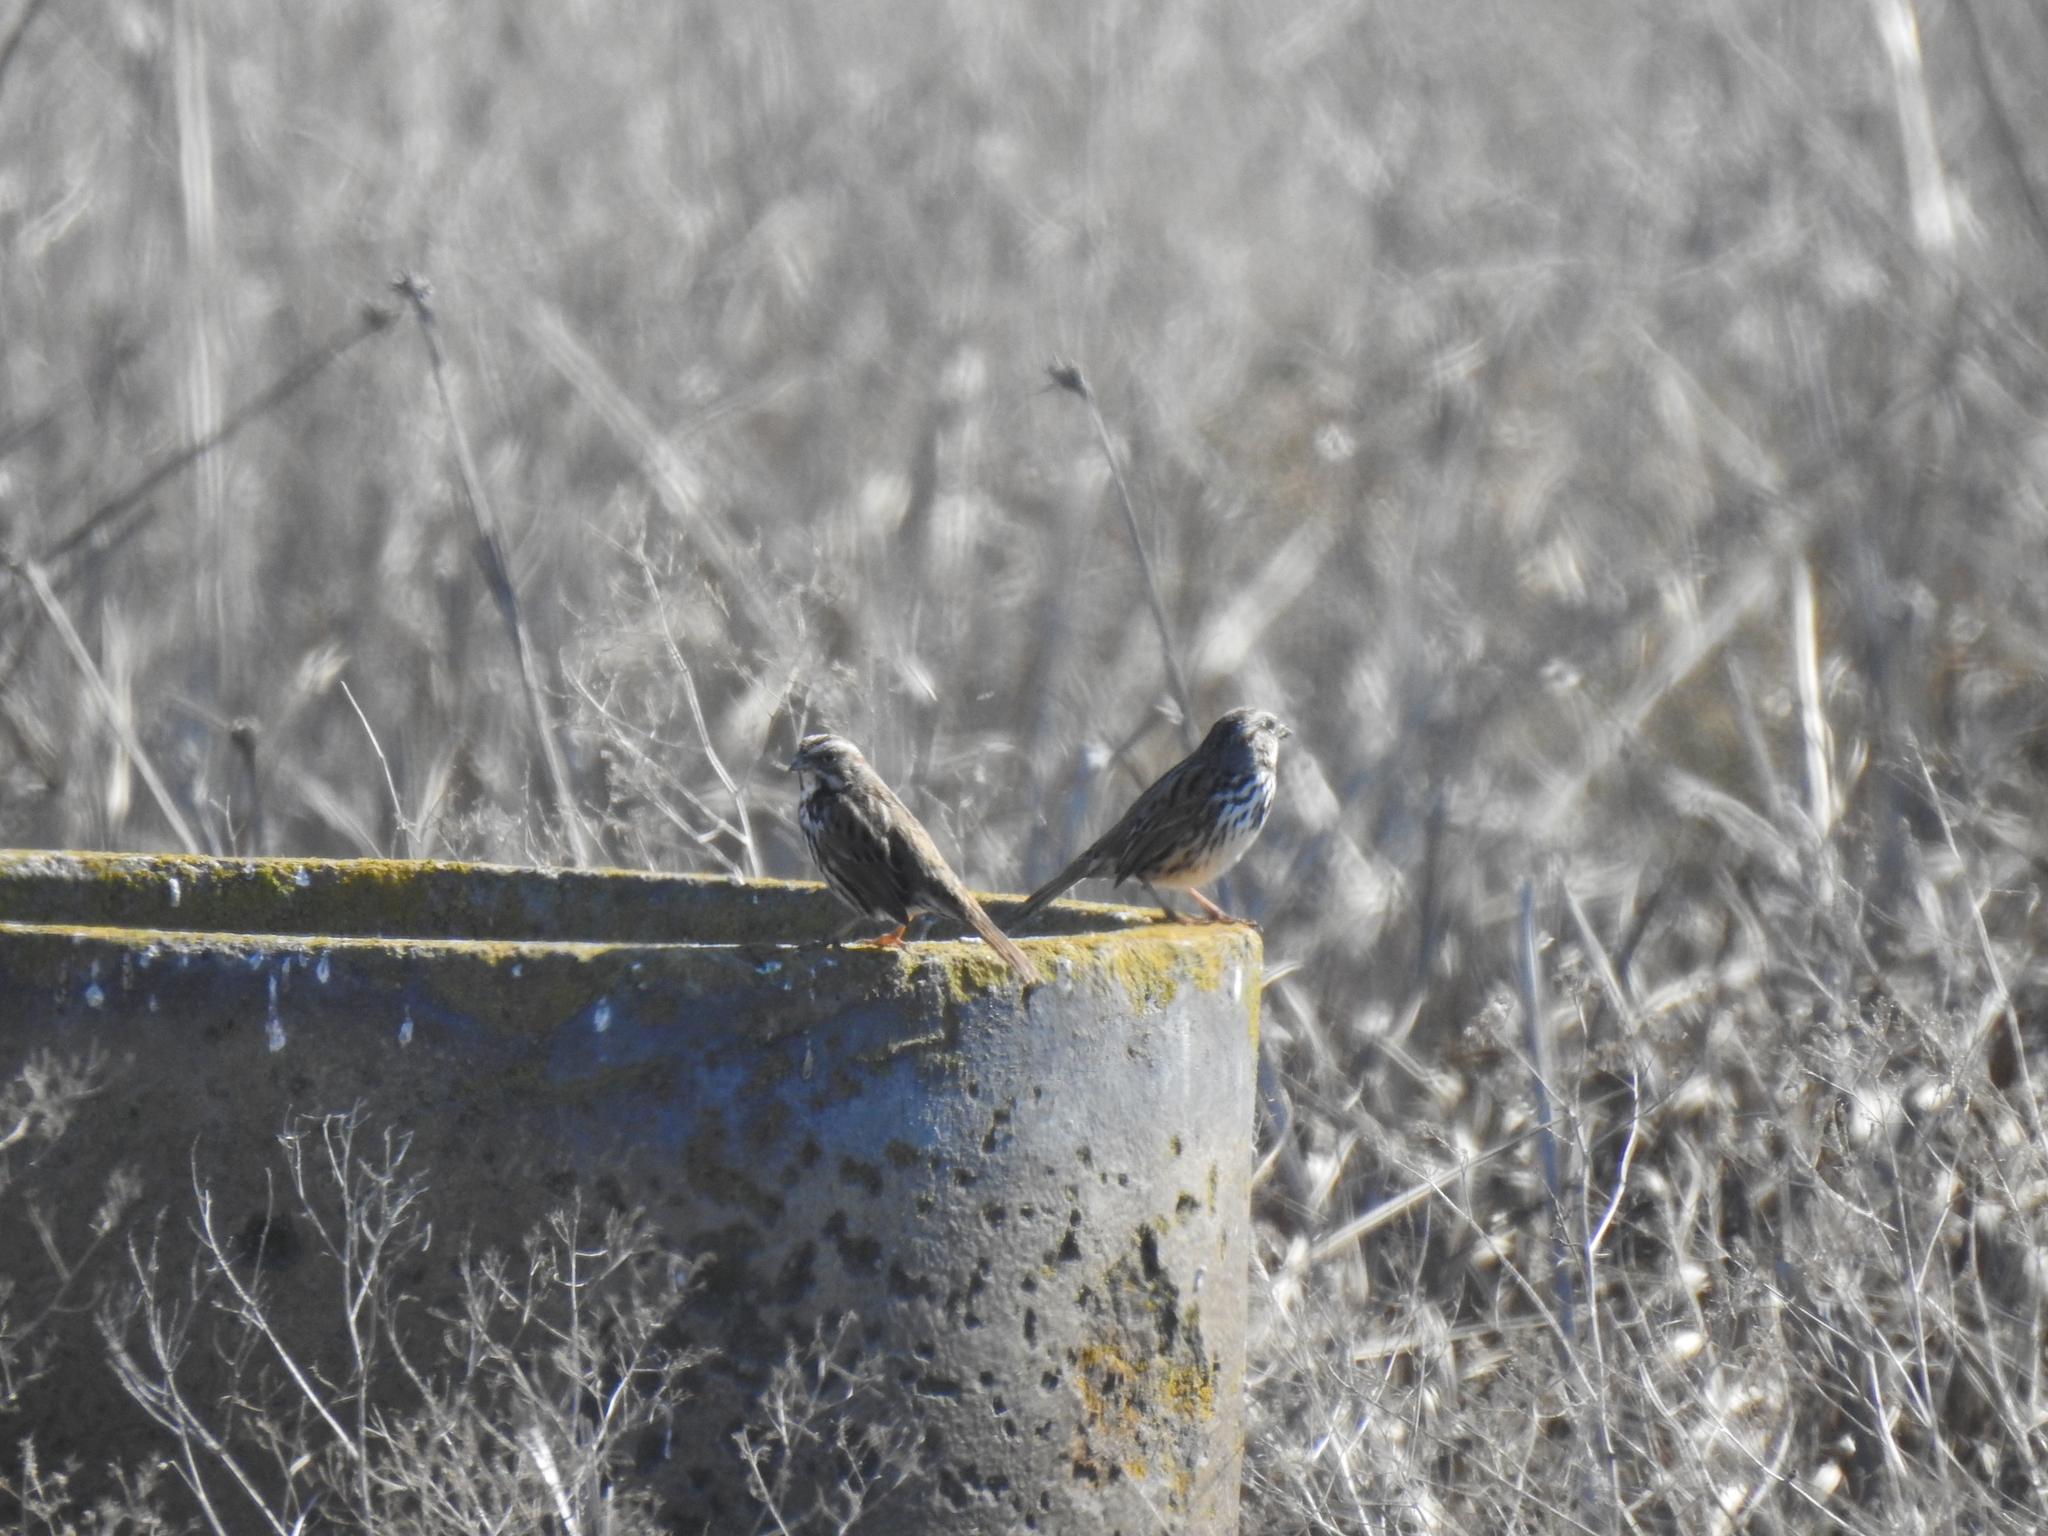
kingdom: Animalia
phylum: Chordata
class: Aves
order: Passeriformes
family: Passerellidae
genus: Melospiza
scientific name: Melospiza melodia
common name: Song sparrow
